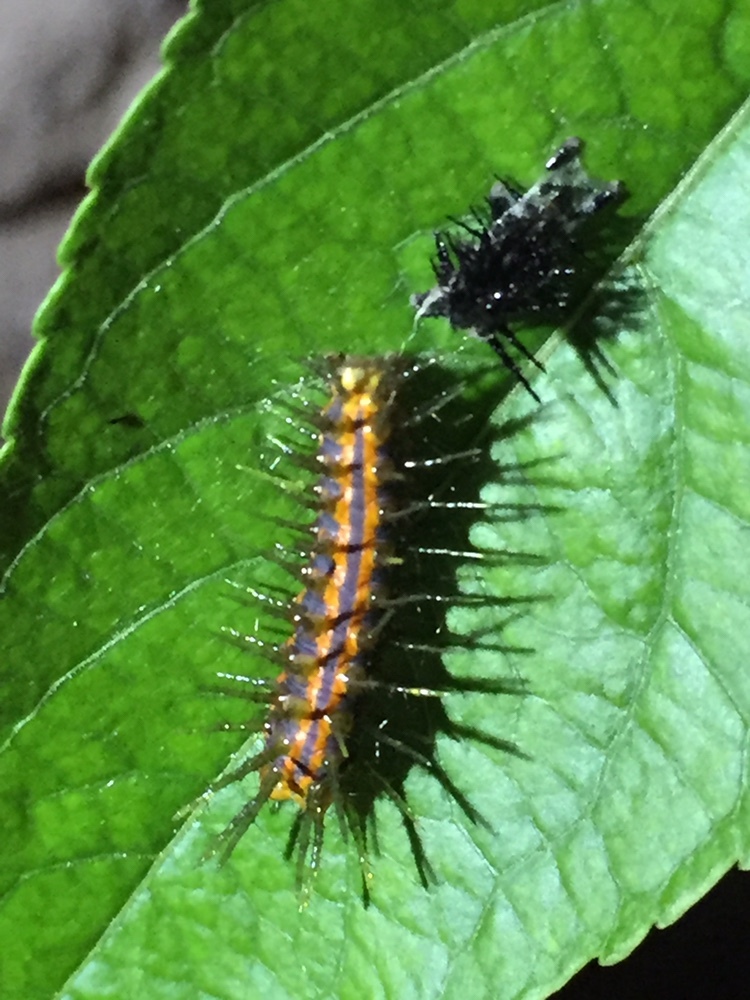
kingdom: Animalia
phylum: Arthropoda
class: Insecta
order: Lepidoptera
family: Nymphalidae
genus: Dione
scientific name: Dione vanillae
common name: Gulf fritillary
